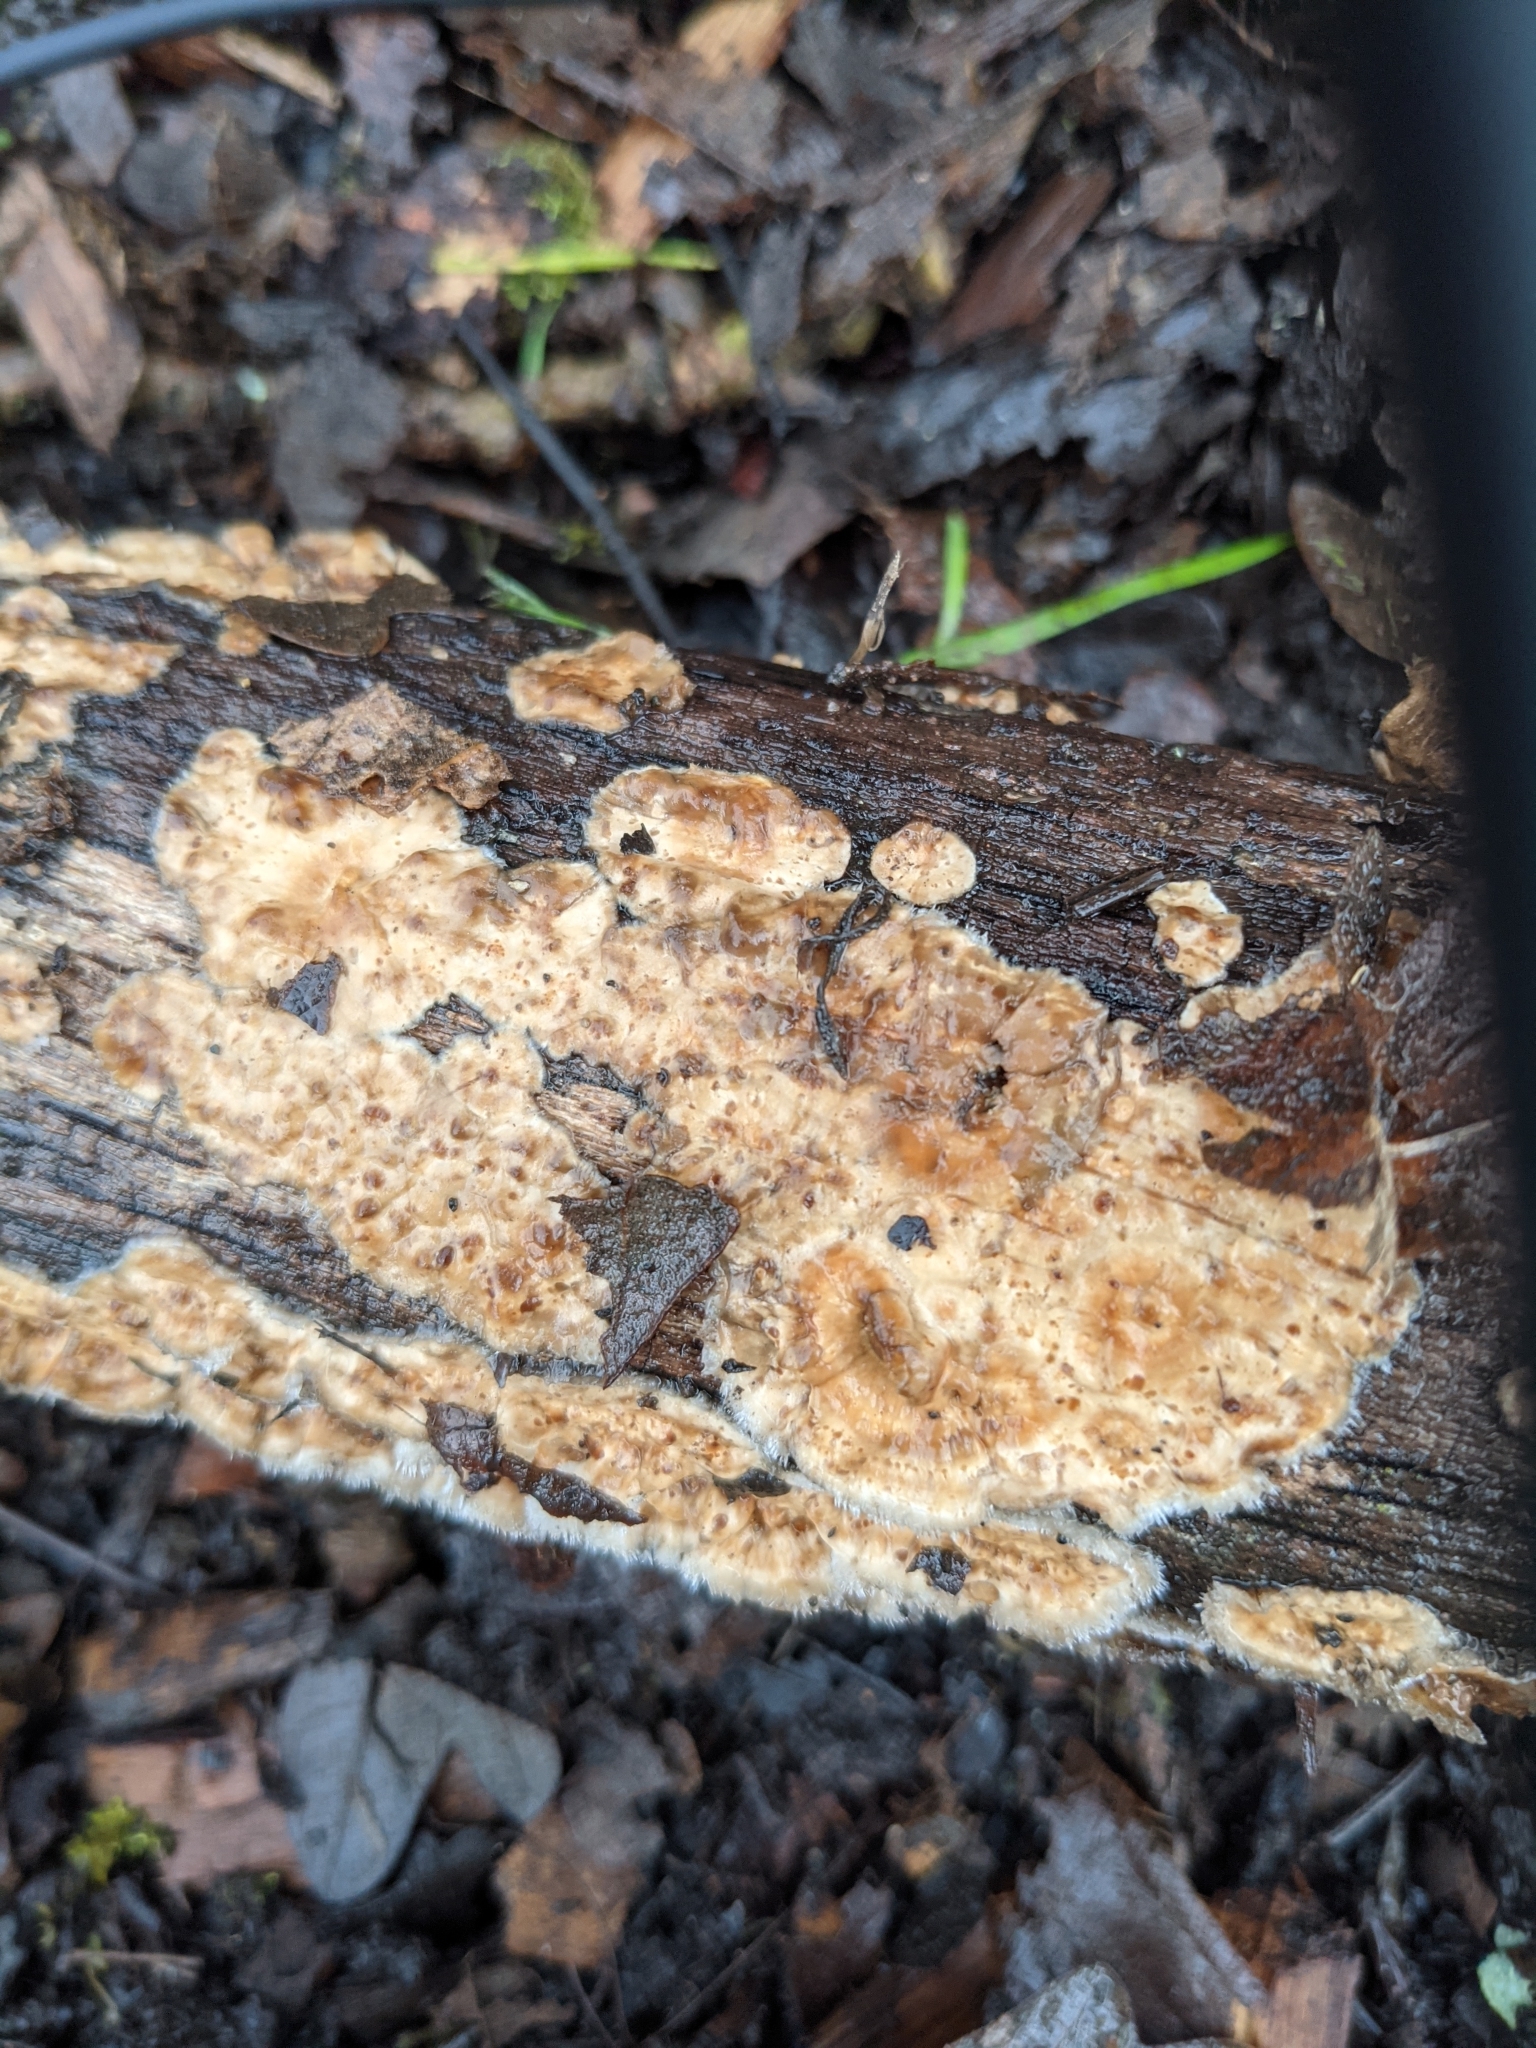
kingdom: Fungi
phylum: Basidiomycota
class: Agaricomycetes
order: Russulales
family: Stereaceae
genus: Stereum
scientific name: Stereum ochraceoflavum
